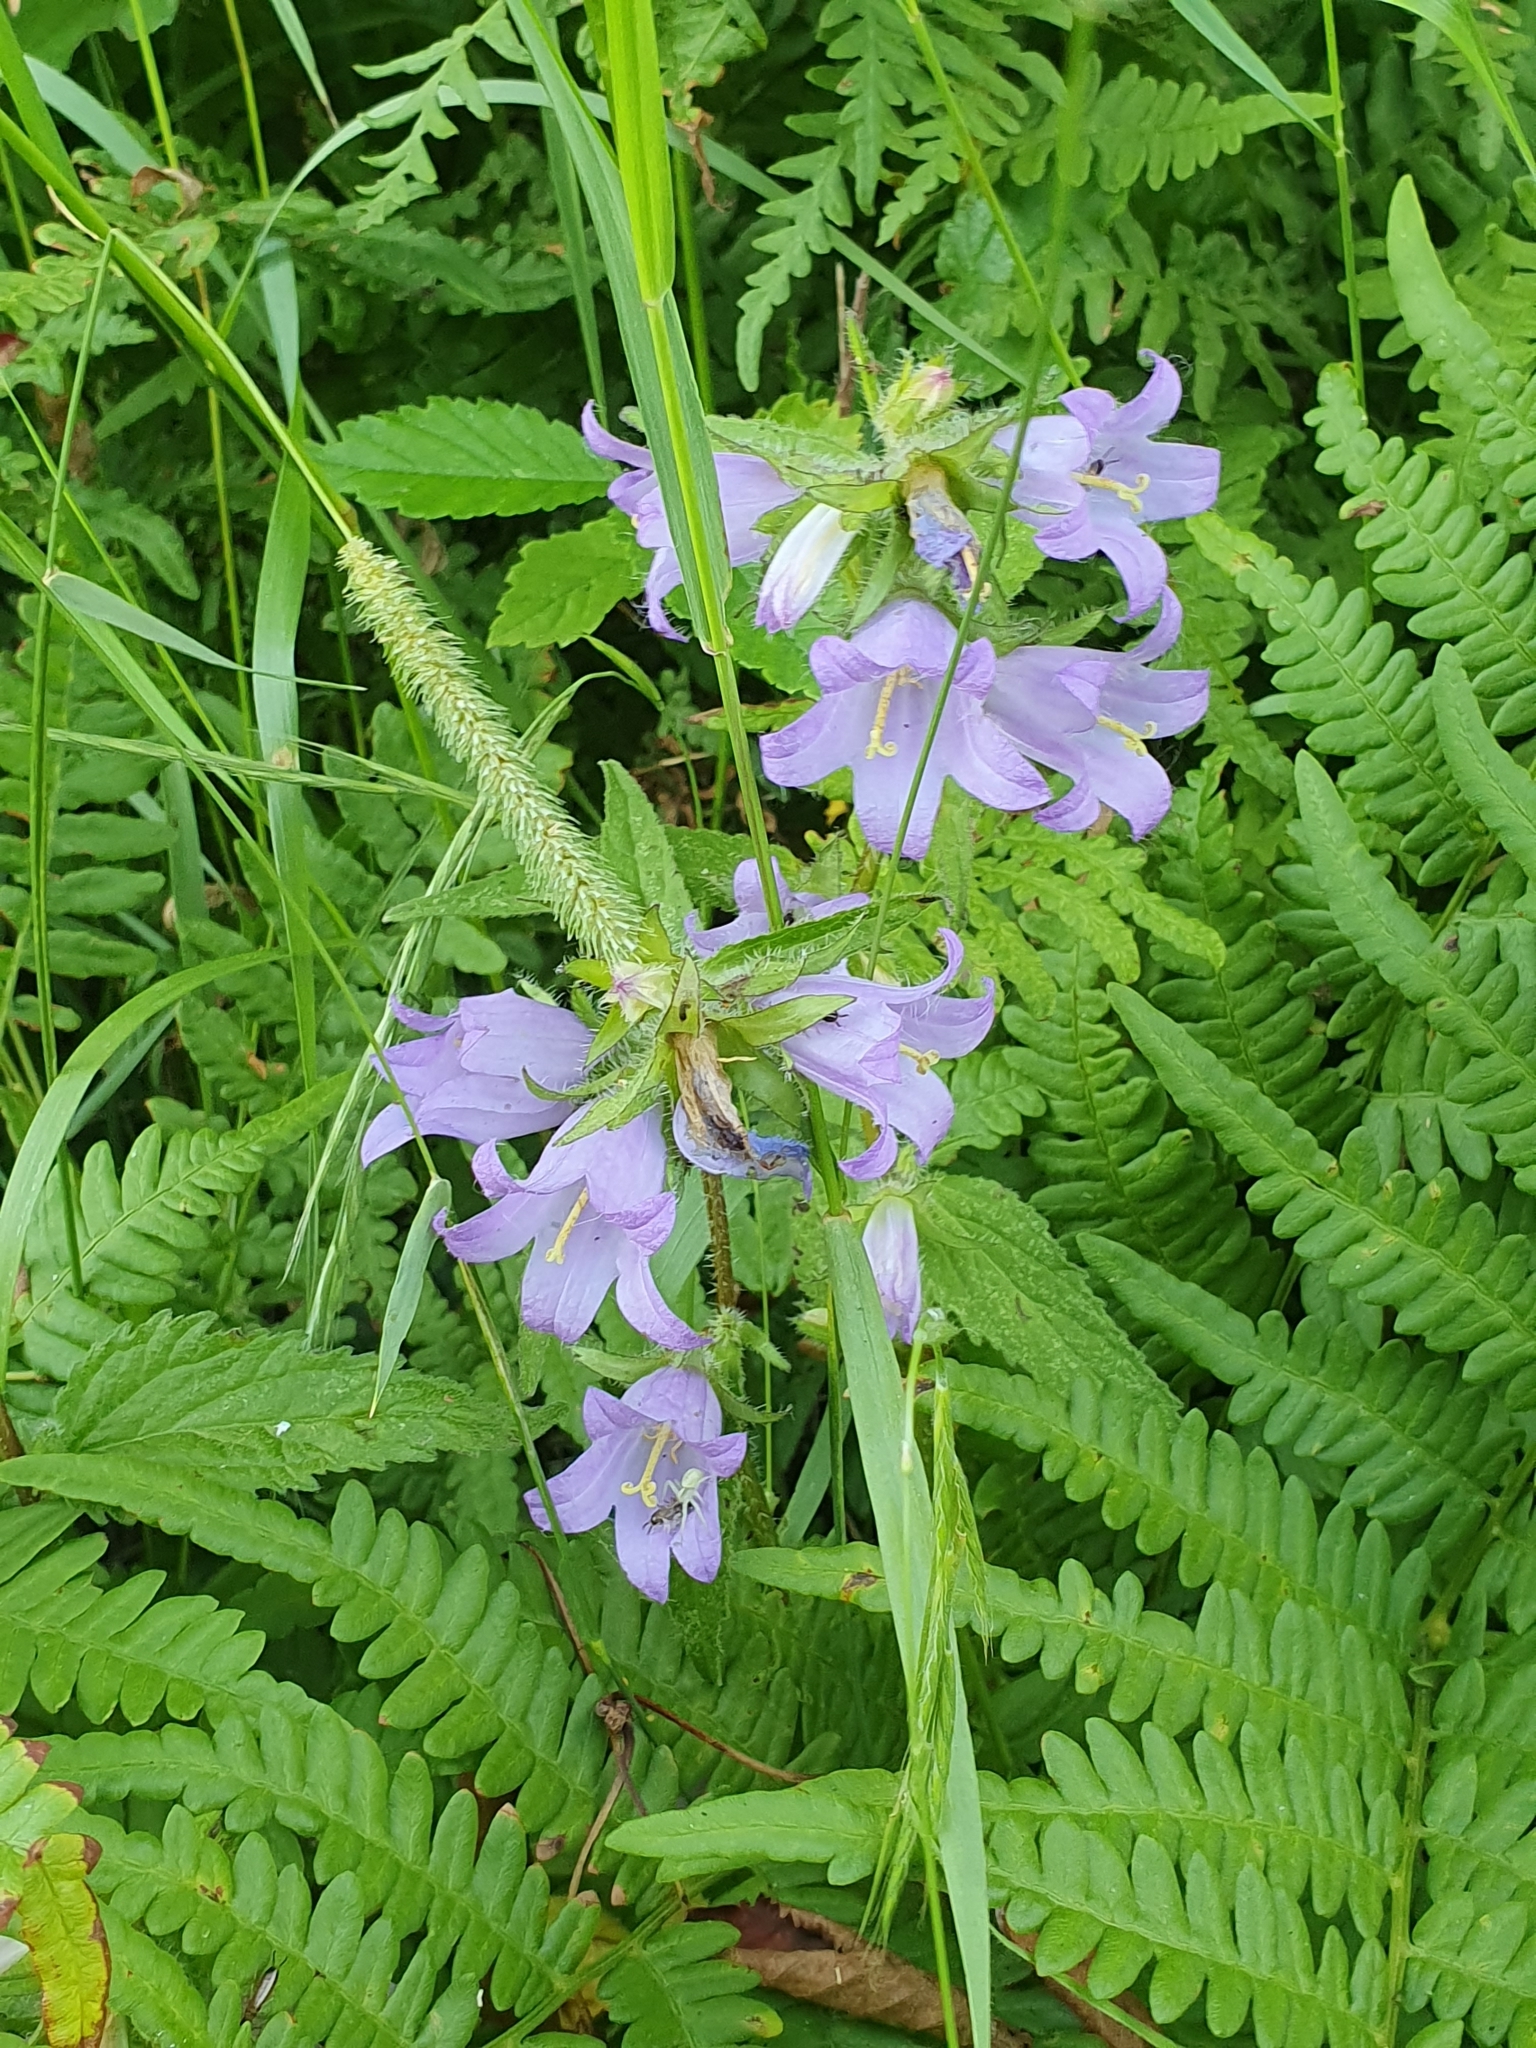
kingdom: Plantae
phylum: Tracheophyta
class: Magnoliopsida
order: Asterales
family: Campanulaceae
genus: Campanula
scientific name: Campanula trachelium
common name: Nettle-leaved bellflower
